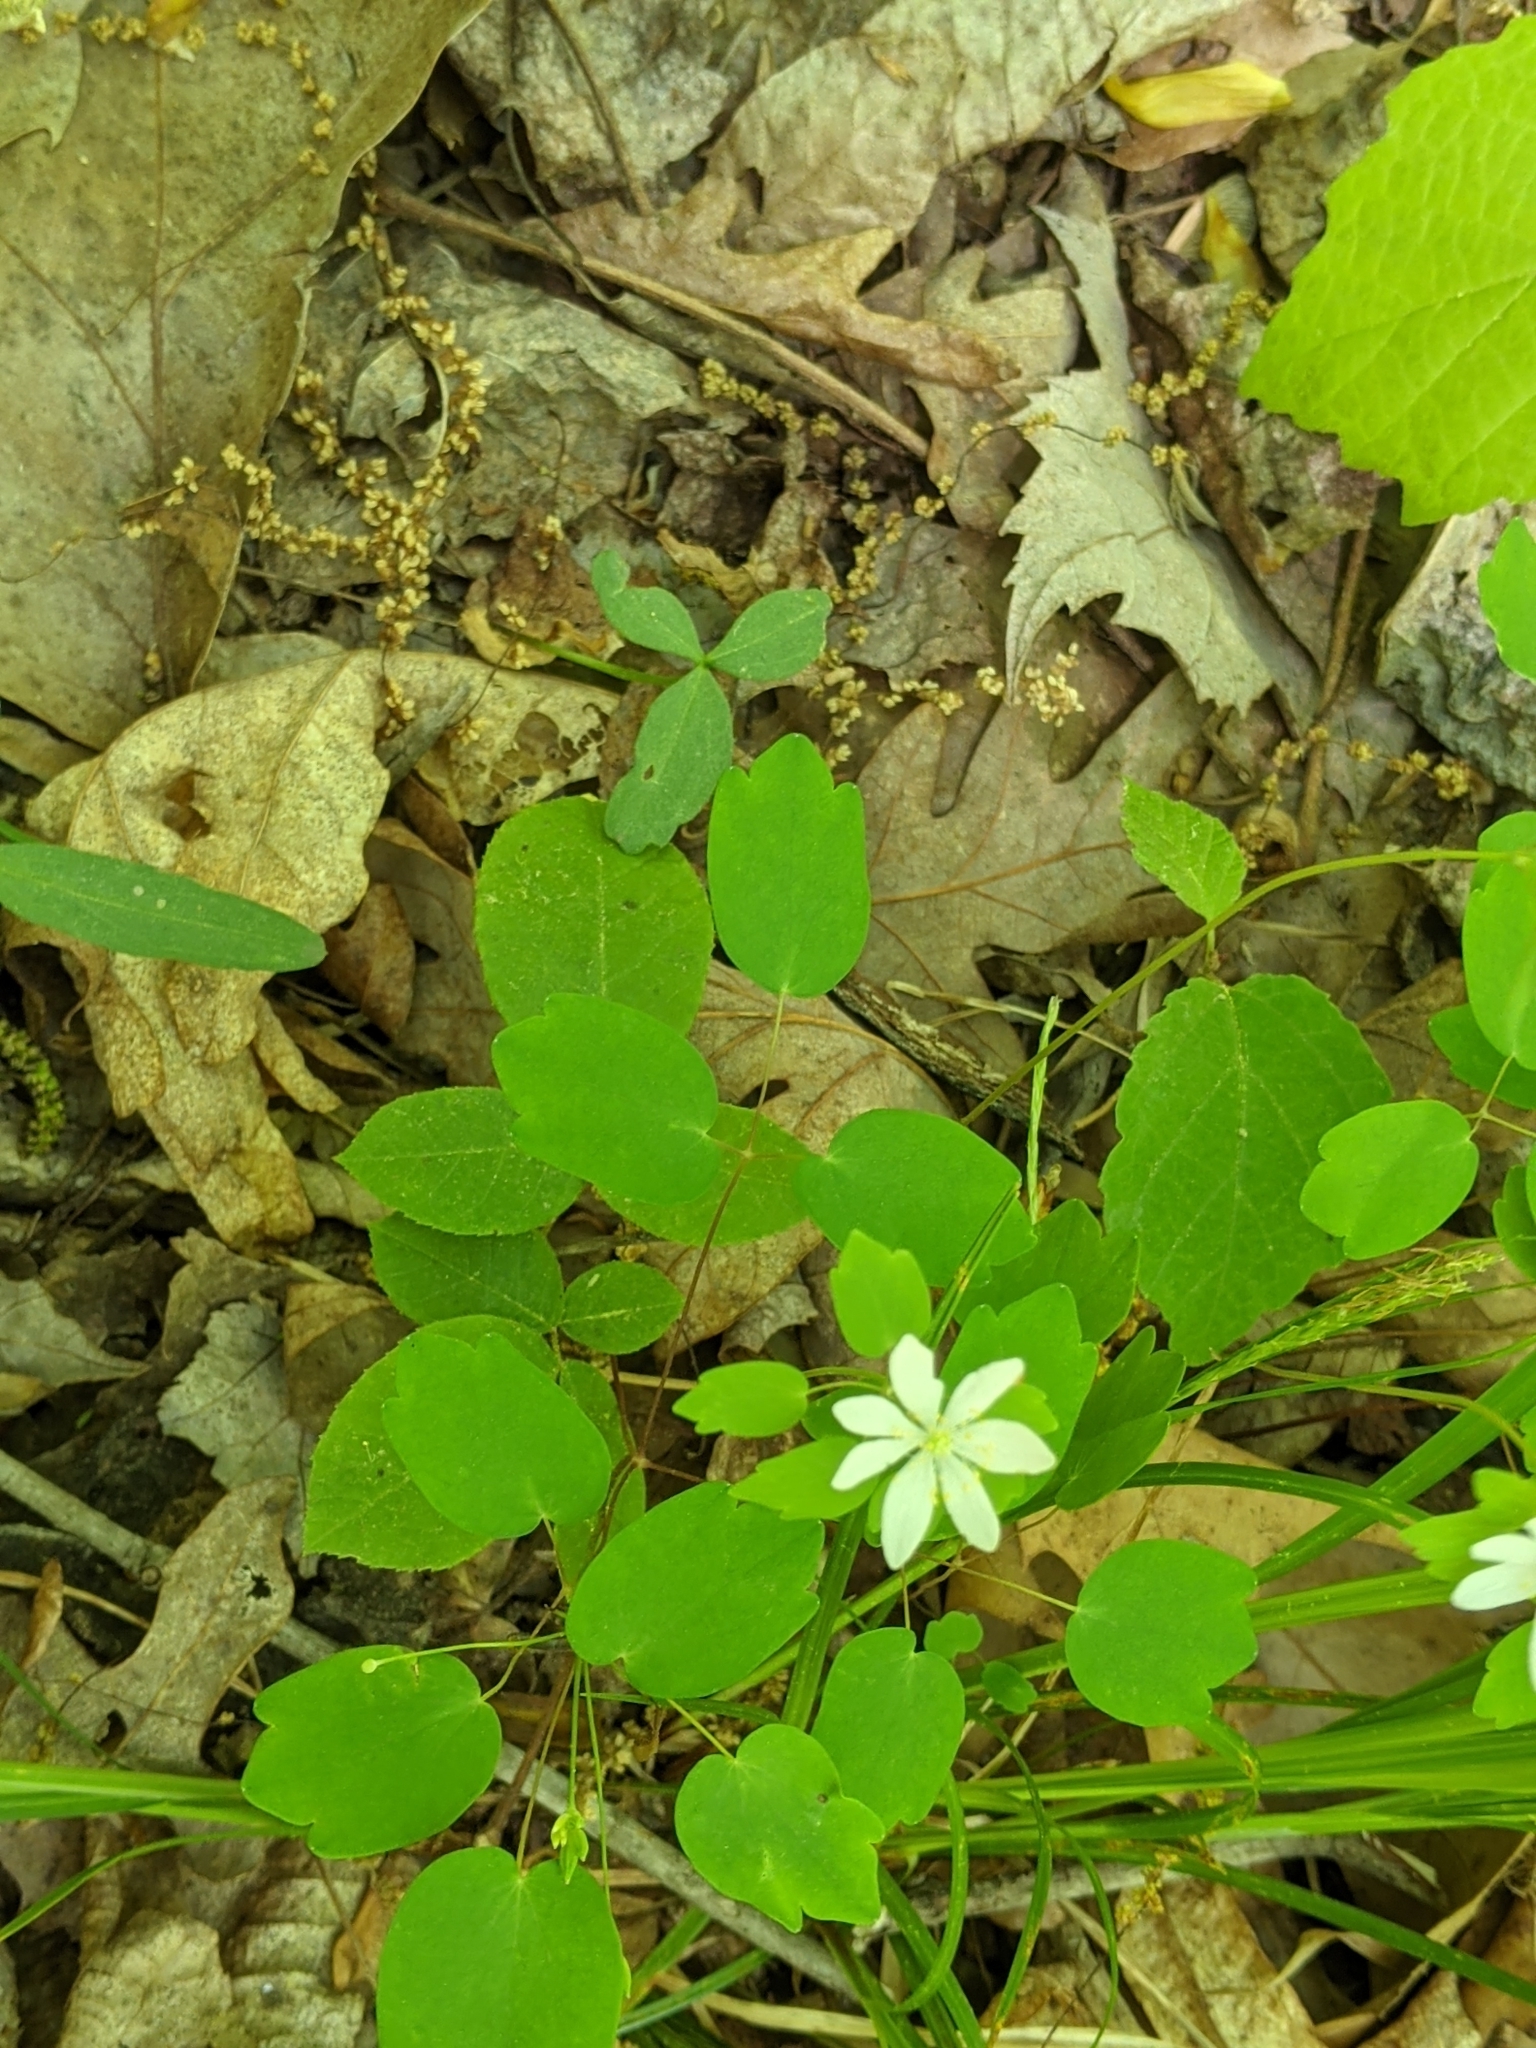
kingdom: Plantae
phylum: Tracheophyta
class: Magnoliopsida
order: Ranunculales
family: Ranunculaceae
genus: Thalictrum
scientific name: Thalictrum thalictroides
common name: Rue-anemone
